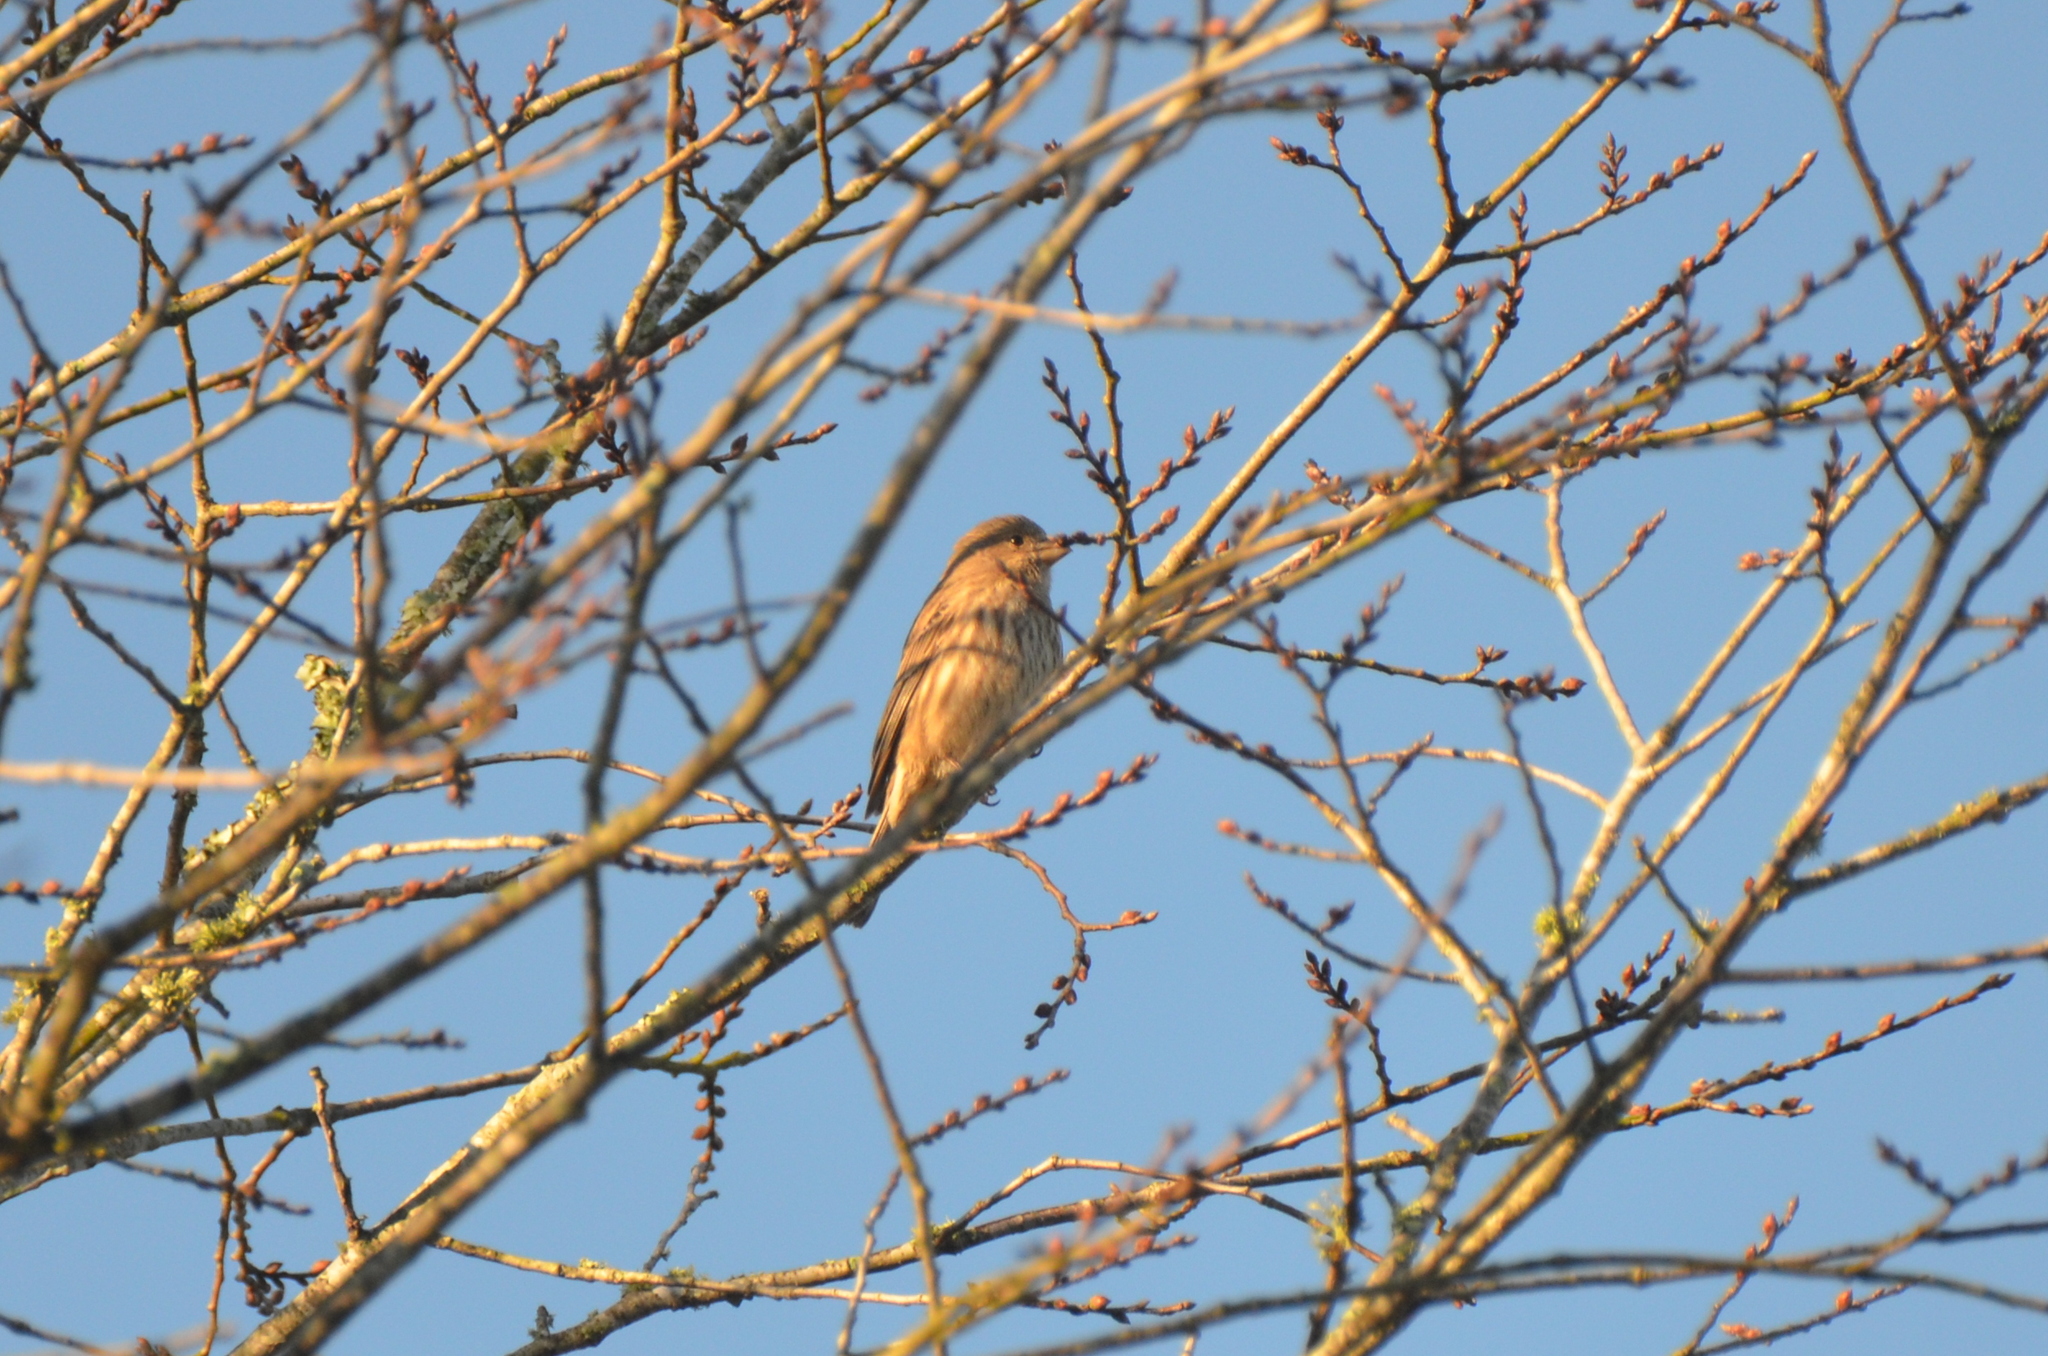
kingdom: Animalia
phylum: Chordata
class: Aves
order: Passeriformes
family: Fringillidae
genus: Haemorhous
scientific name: Haemorhous mexicanus
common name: House finch
